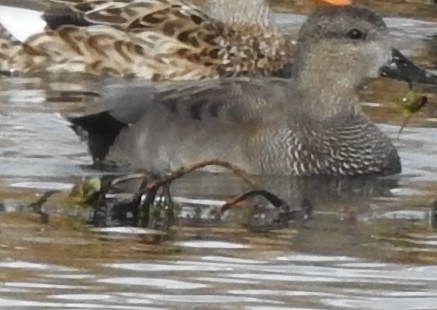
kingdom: Animalia
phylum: Chordata
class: Aves
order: Anseriformes
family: Anatidae
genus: Mareca
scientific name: Mareca strepera
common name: Gadwall
